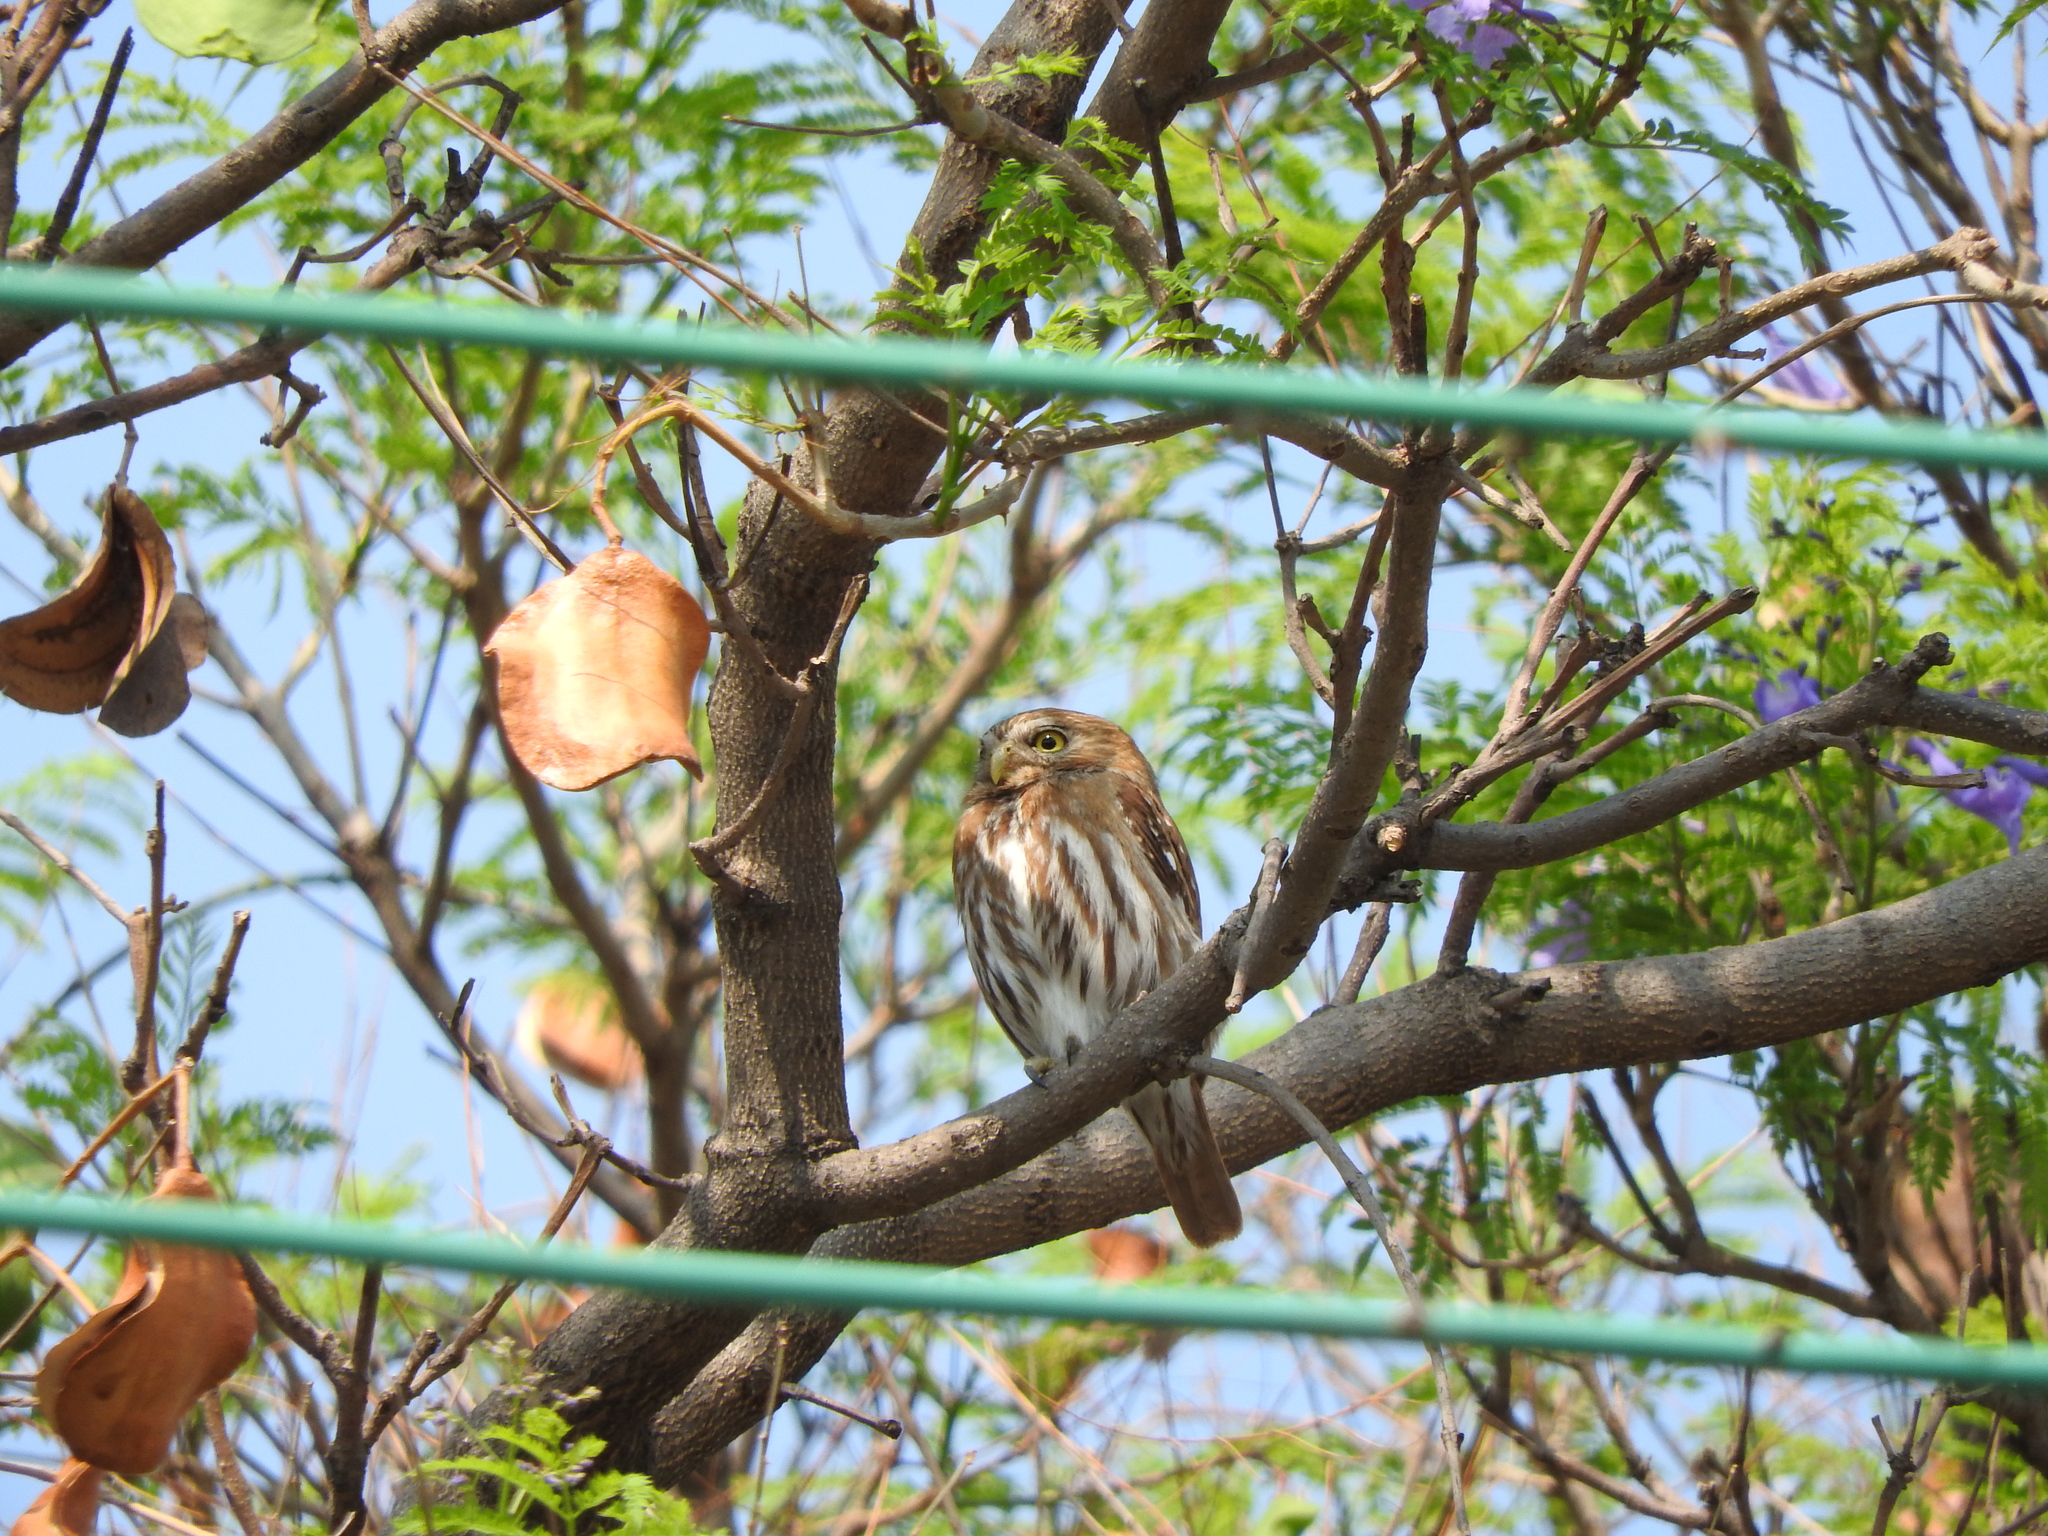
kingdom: Animalia
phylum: Chordata
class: Aves
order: Strigiformes
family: Strigidae
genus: Glaucidium
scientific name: Glaucidium brasilianum
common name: Ferruginous pygmy-owl
